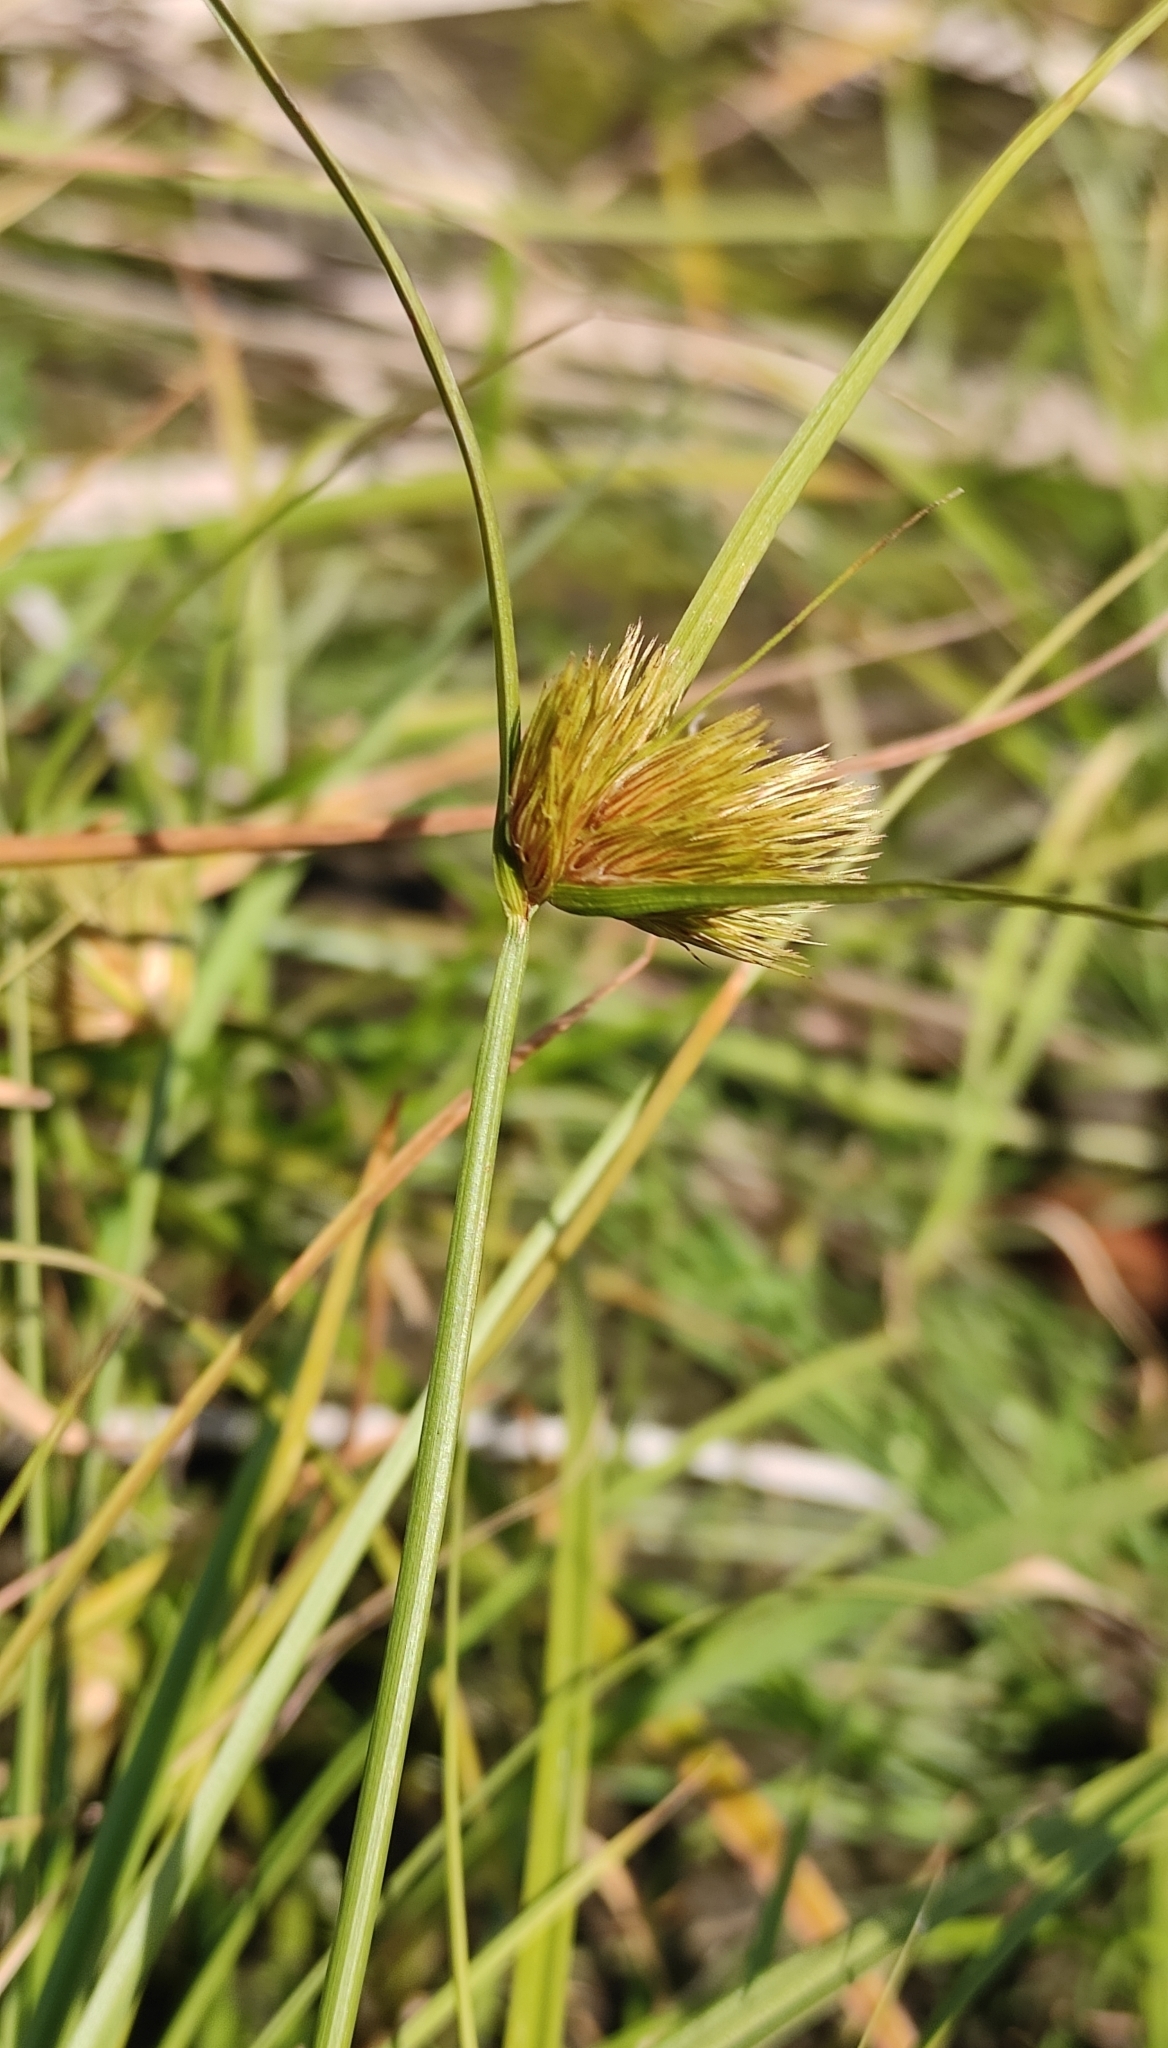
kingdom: Plantae
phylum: Tracheophyta
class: Liliopsida
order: Poales
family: Cyperaceae
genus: Carex
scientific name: Carex bohemica
